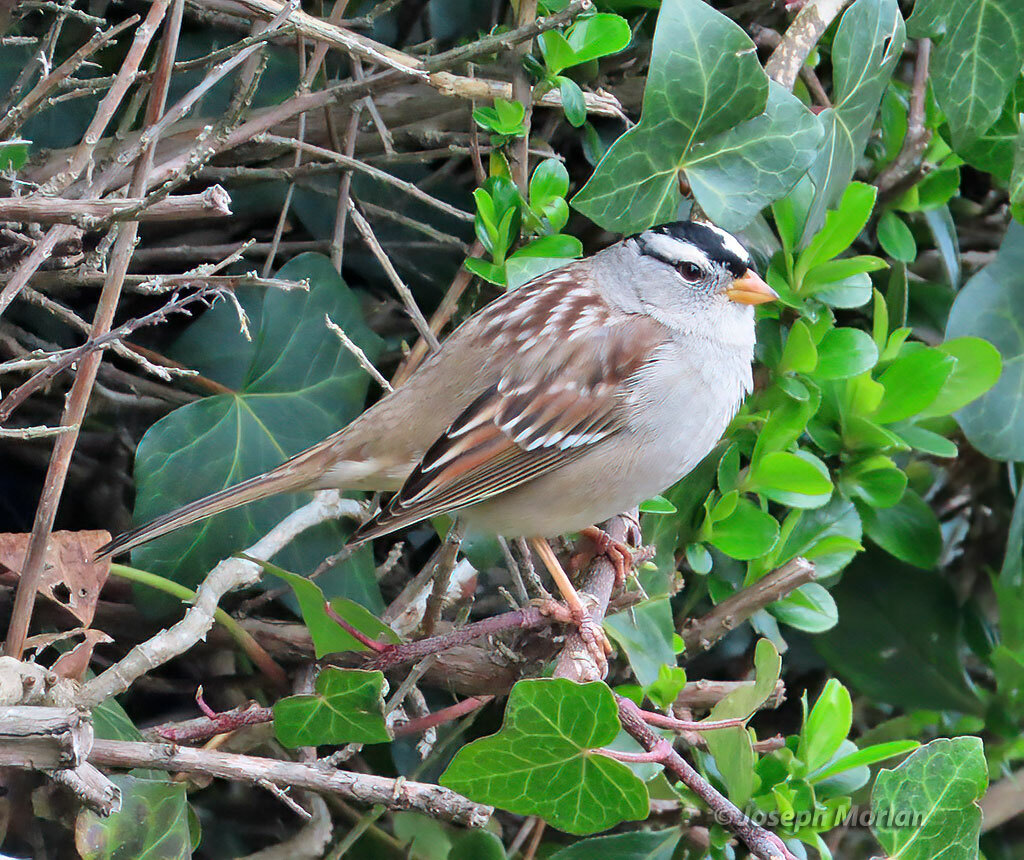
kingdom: Animalia
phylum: Chordata
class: Aves
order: Passeriformes
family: Passerellidae
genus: Zonotrichia
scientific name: Zonotrichia leucophrys
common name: White-crowned sparrow
